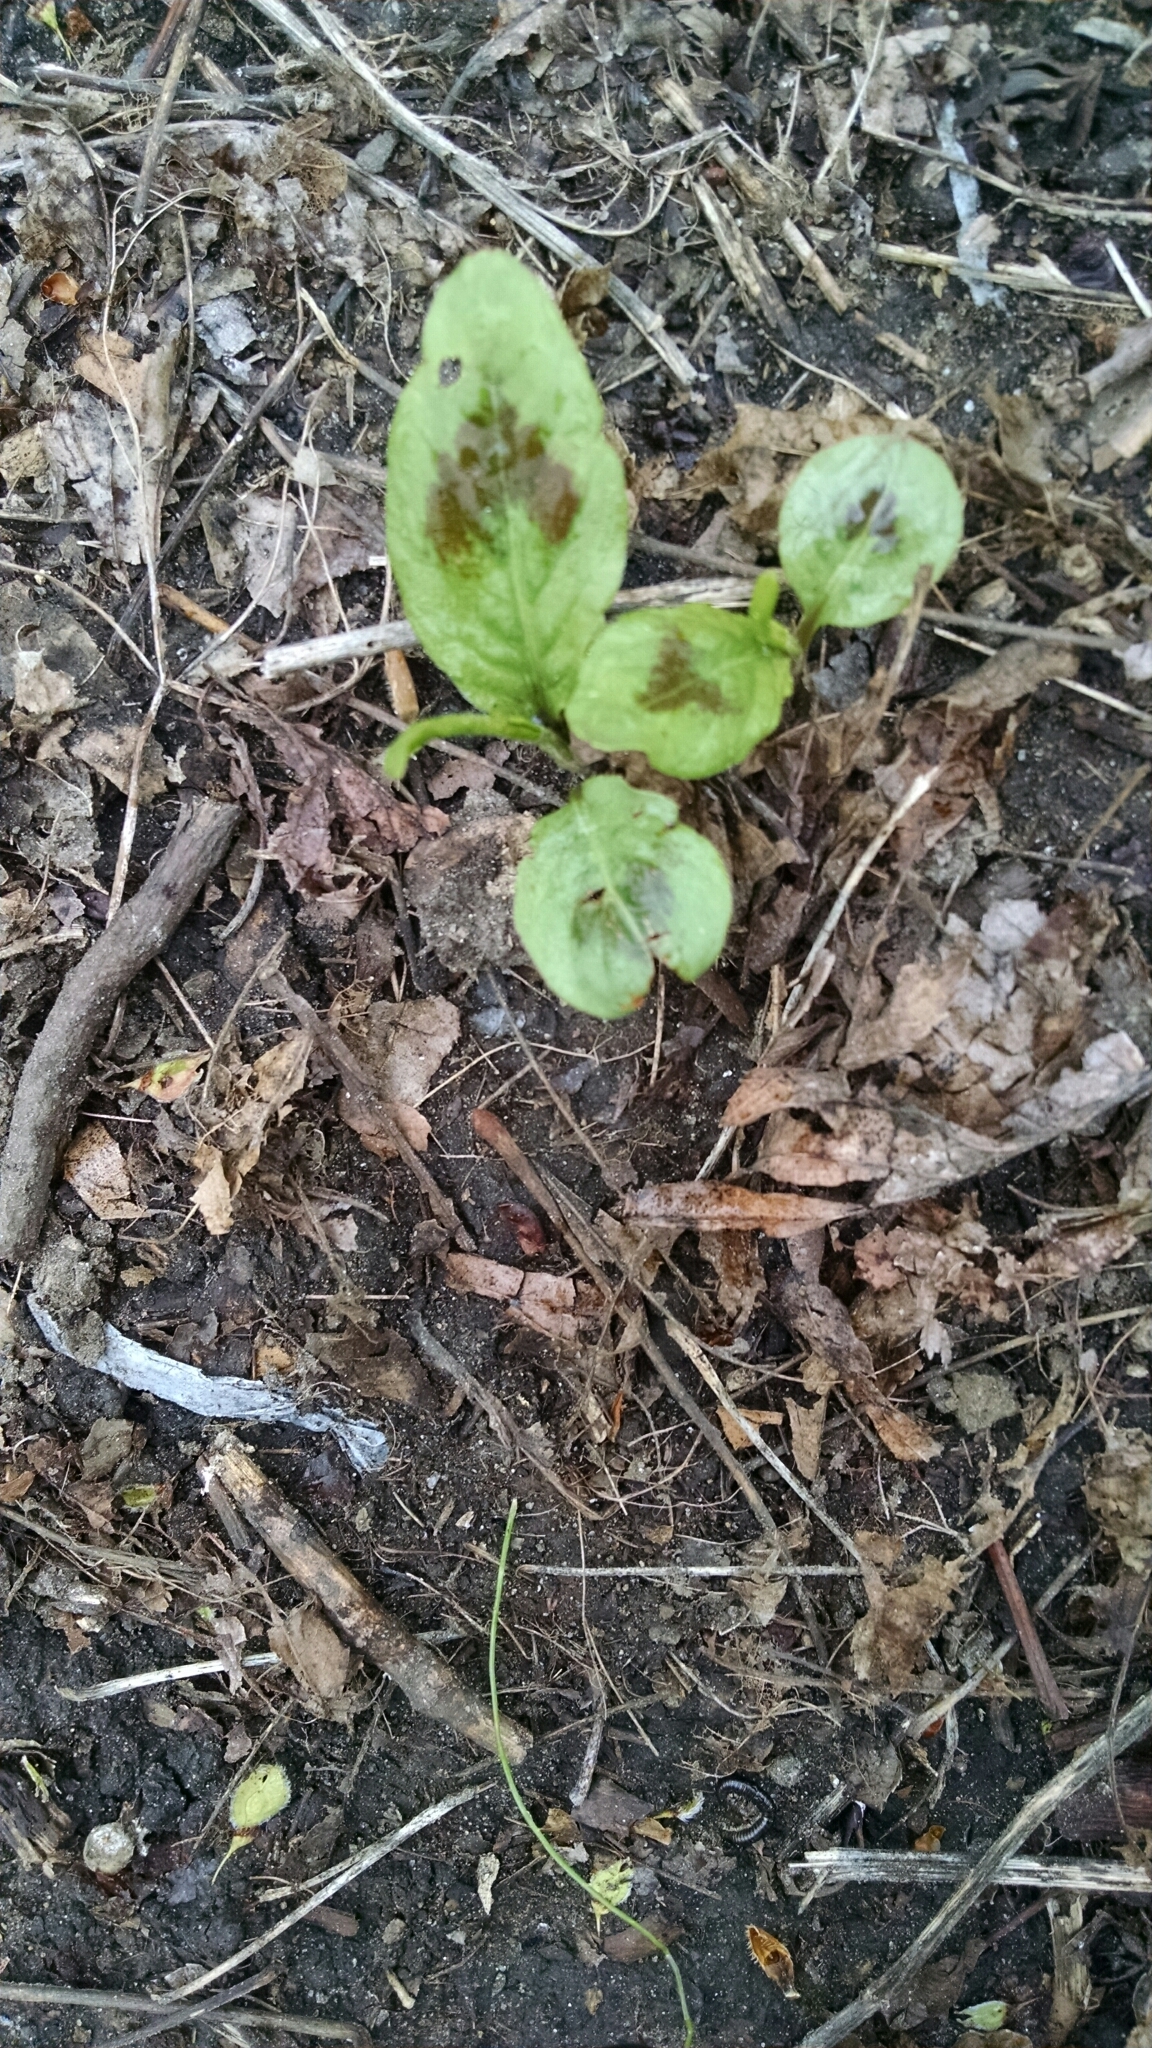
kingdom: Plantae
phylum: Tracheophyta
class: Magnoliopsida
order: Caryophyllales
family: Polygonaceae
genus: Persicaria
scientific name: Persicaria virginiana
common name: Jumpseed
